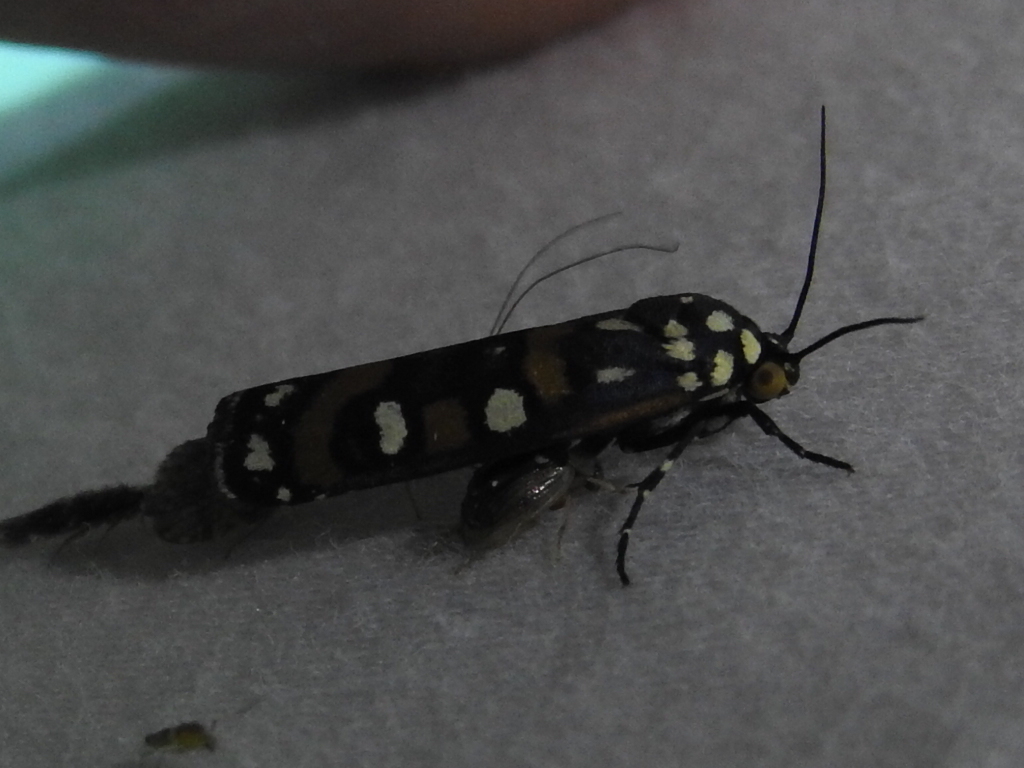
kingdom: Animalia
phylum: Arthropoda
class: Insecta
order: Lepidoptera
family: Noctuidae
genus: Cydosia
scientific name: Cydosia aurivitta
